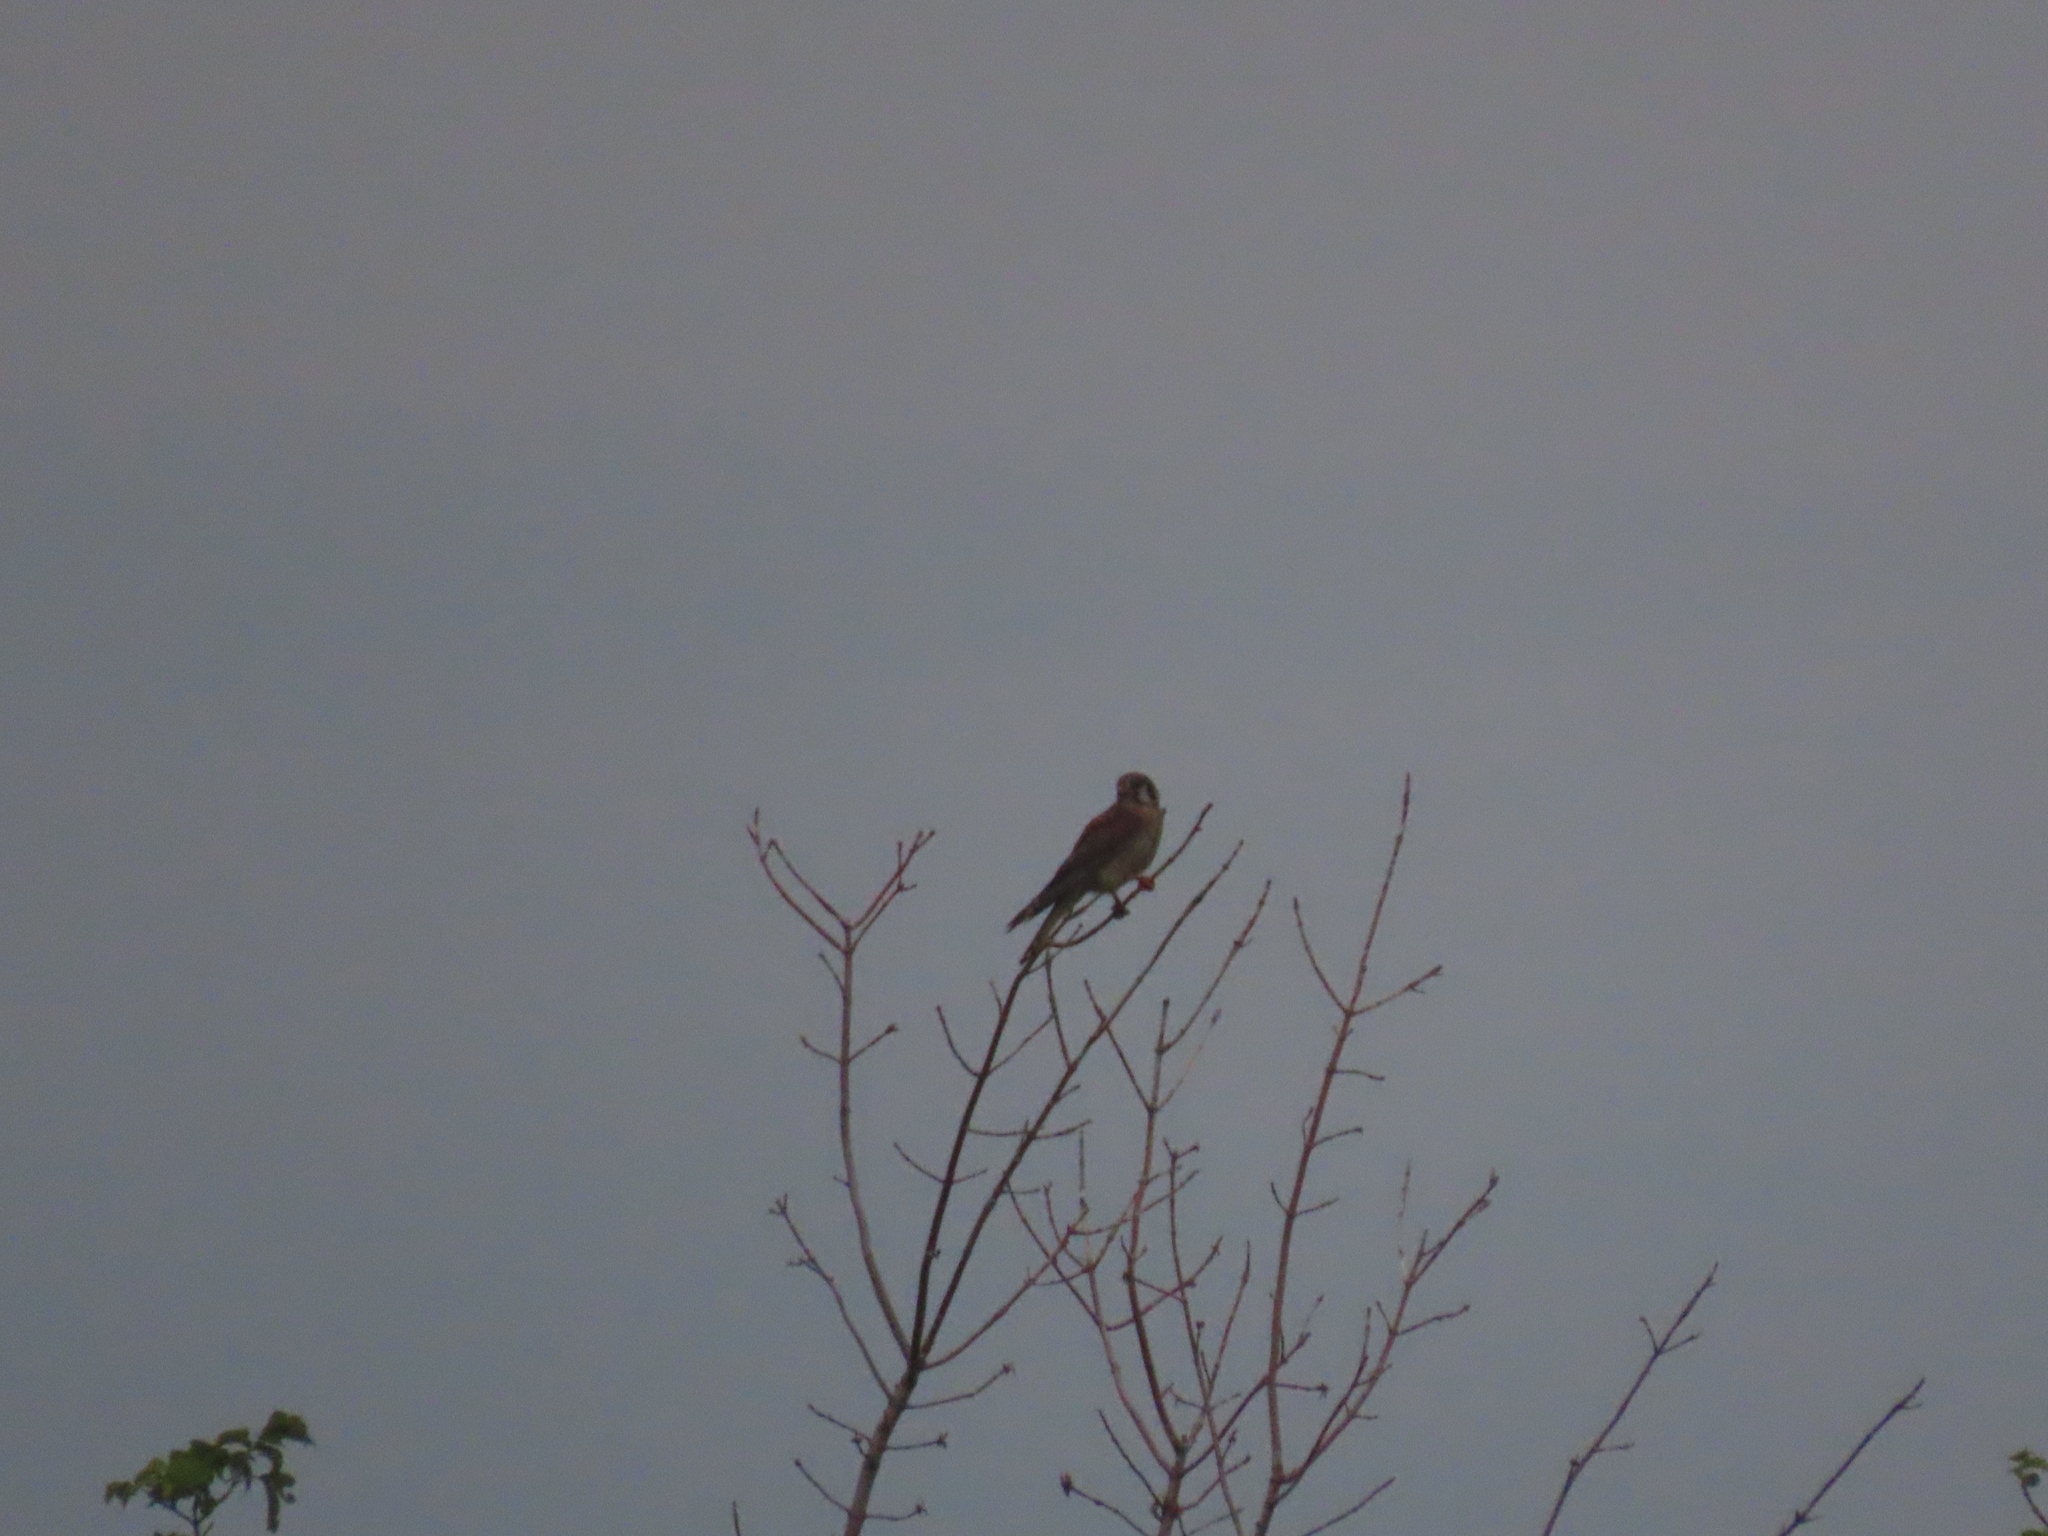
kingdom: Animalia
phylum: Chordata
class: Aves
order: Falconiformes
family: Falconidae
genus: Falco
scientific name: Falco sparverius
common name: American kestrel
